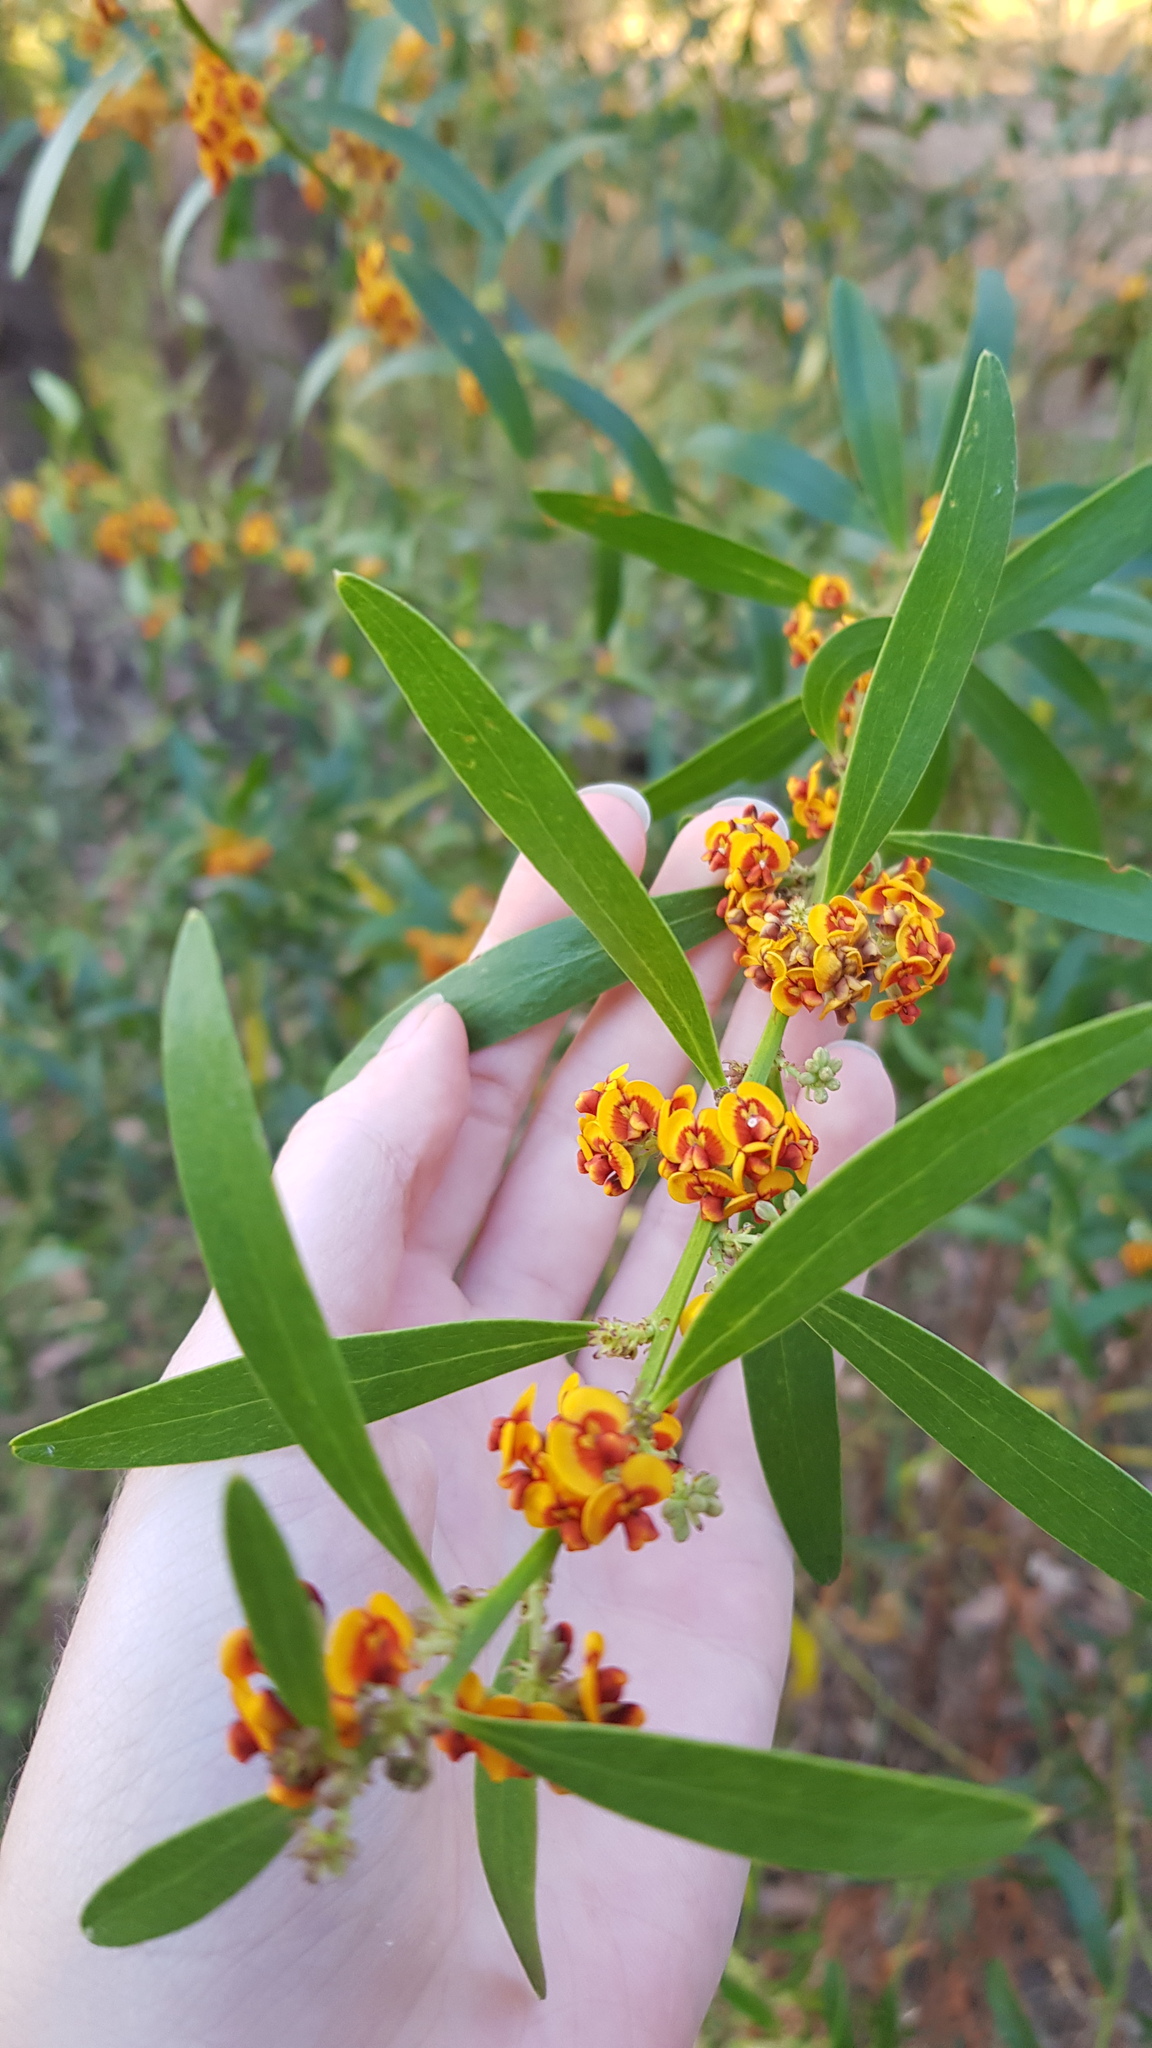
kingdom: Plantae
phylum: Tracheophyta
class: Magnoliopsida
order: Fabales
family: Fabaceae
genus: Daviesia
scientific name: Daviesia corymbosa
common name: Narrow-leaf bitter-pea
